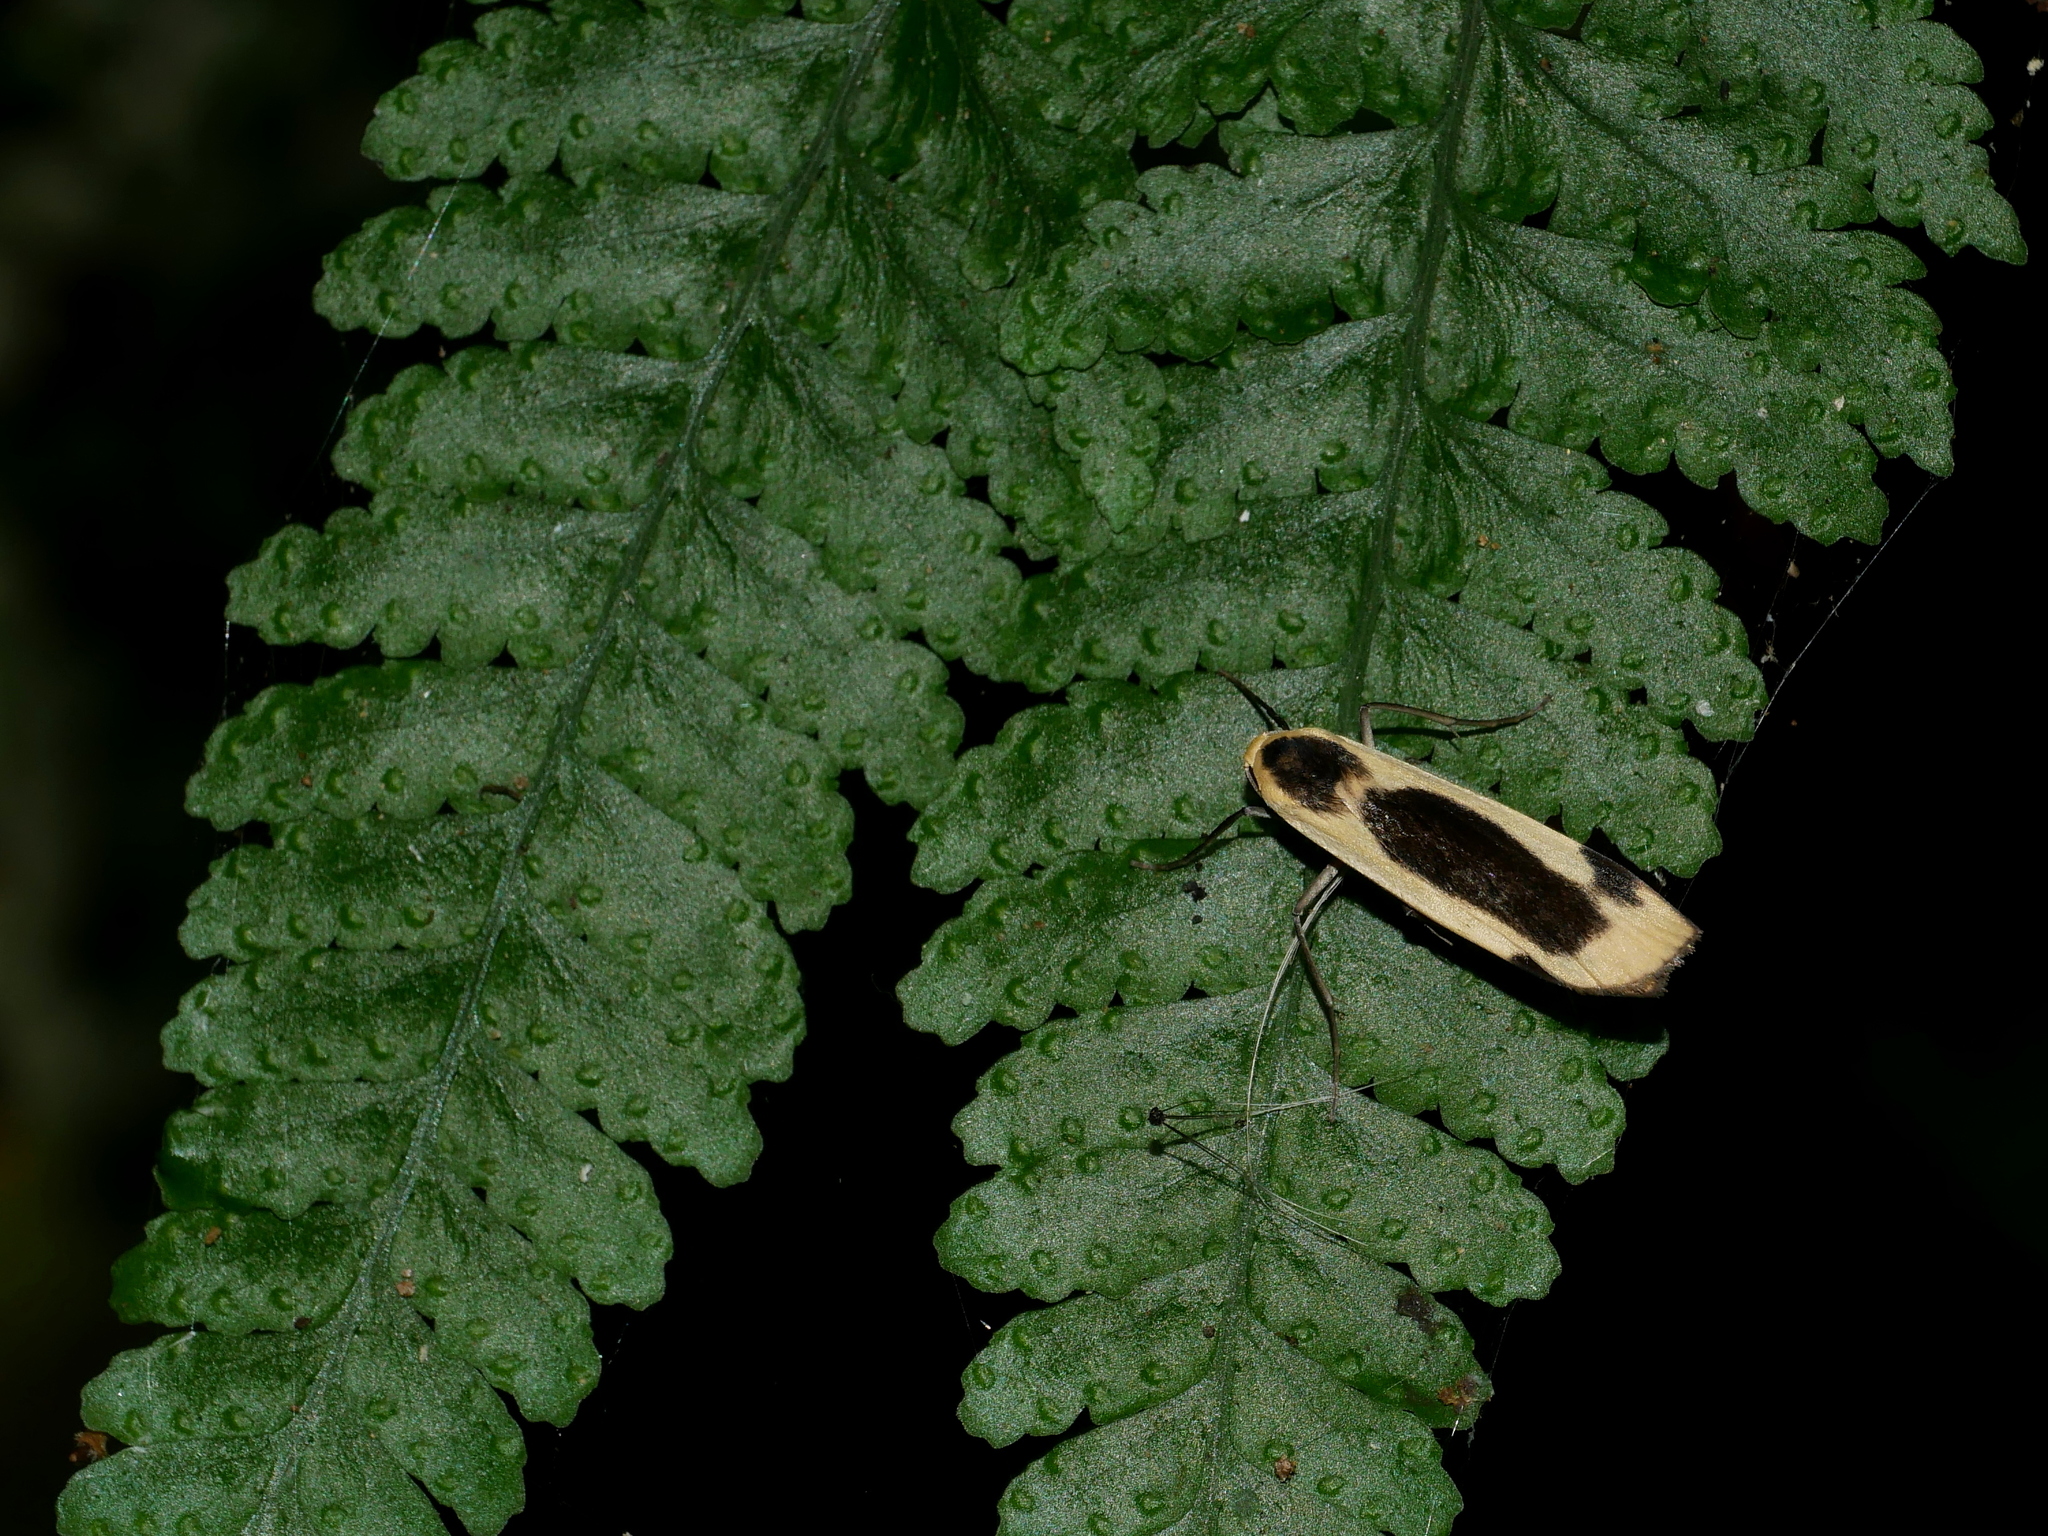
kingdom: Animalia
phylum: Arthropoda
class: Insecta
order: Lepidoptera
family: Erebidae
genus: Thysanoptyx
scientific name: Thysanoptyx incurvata
